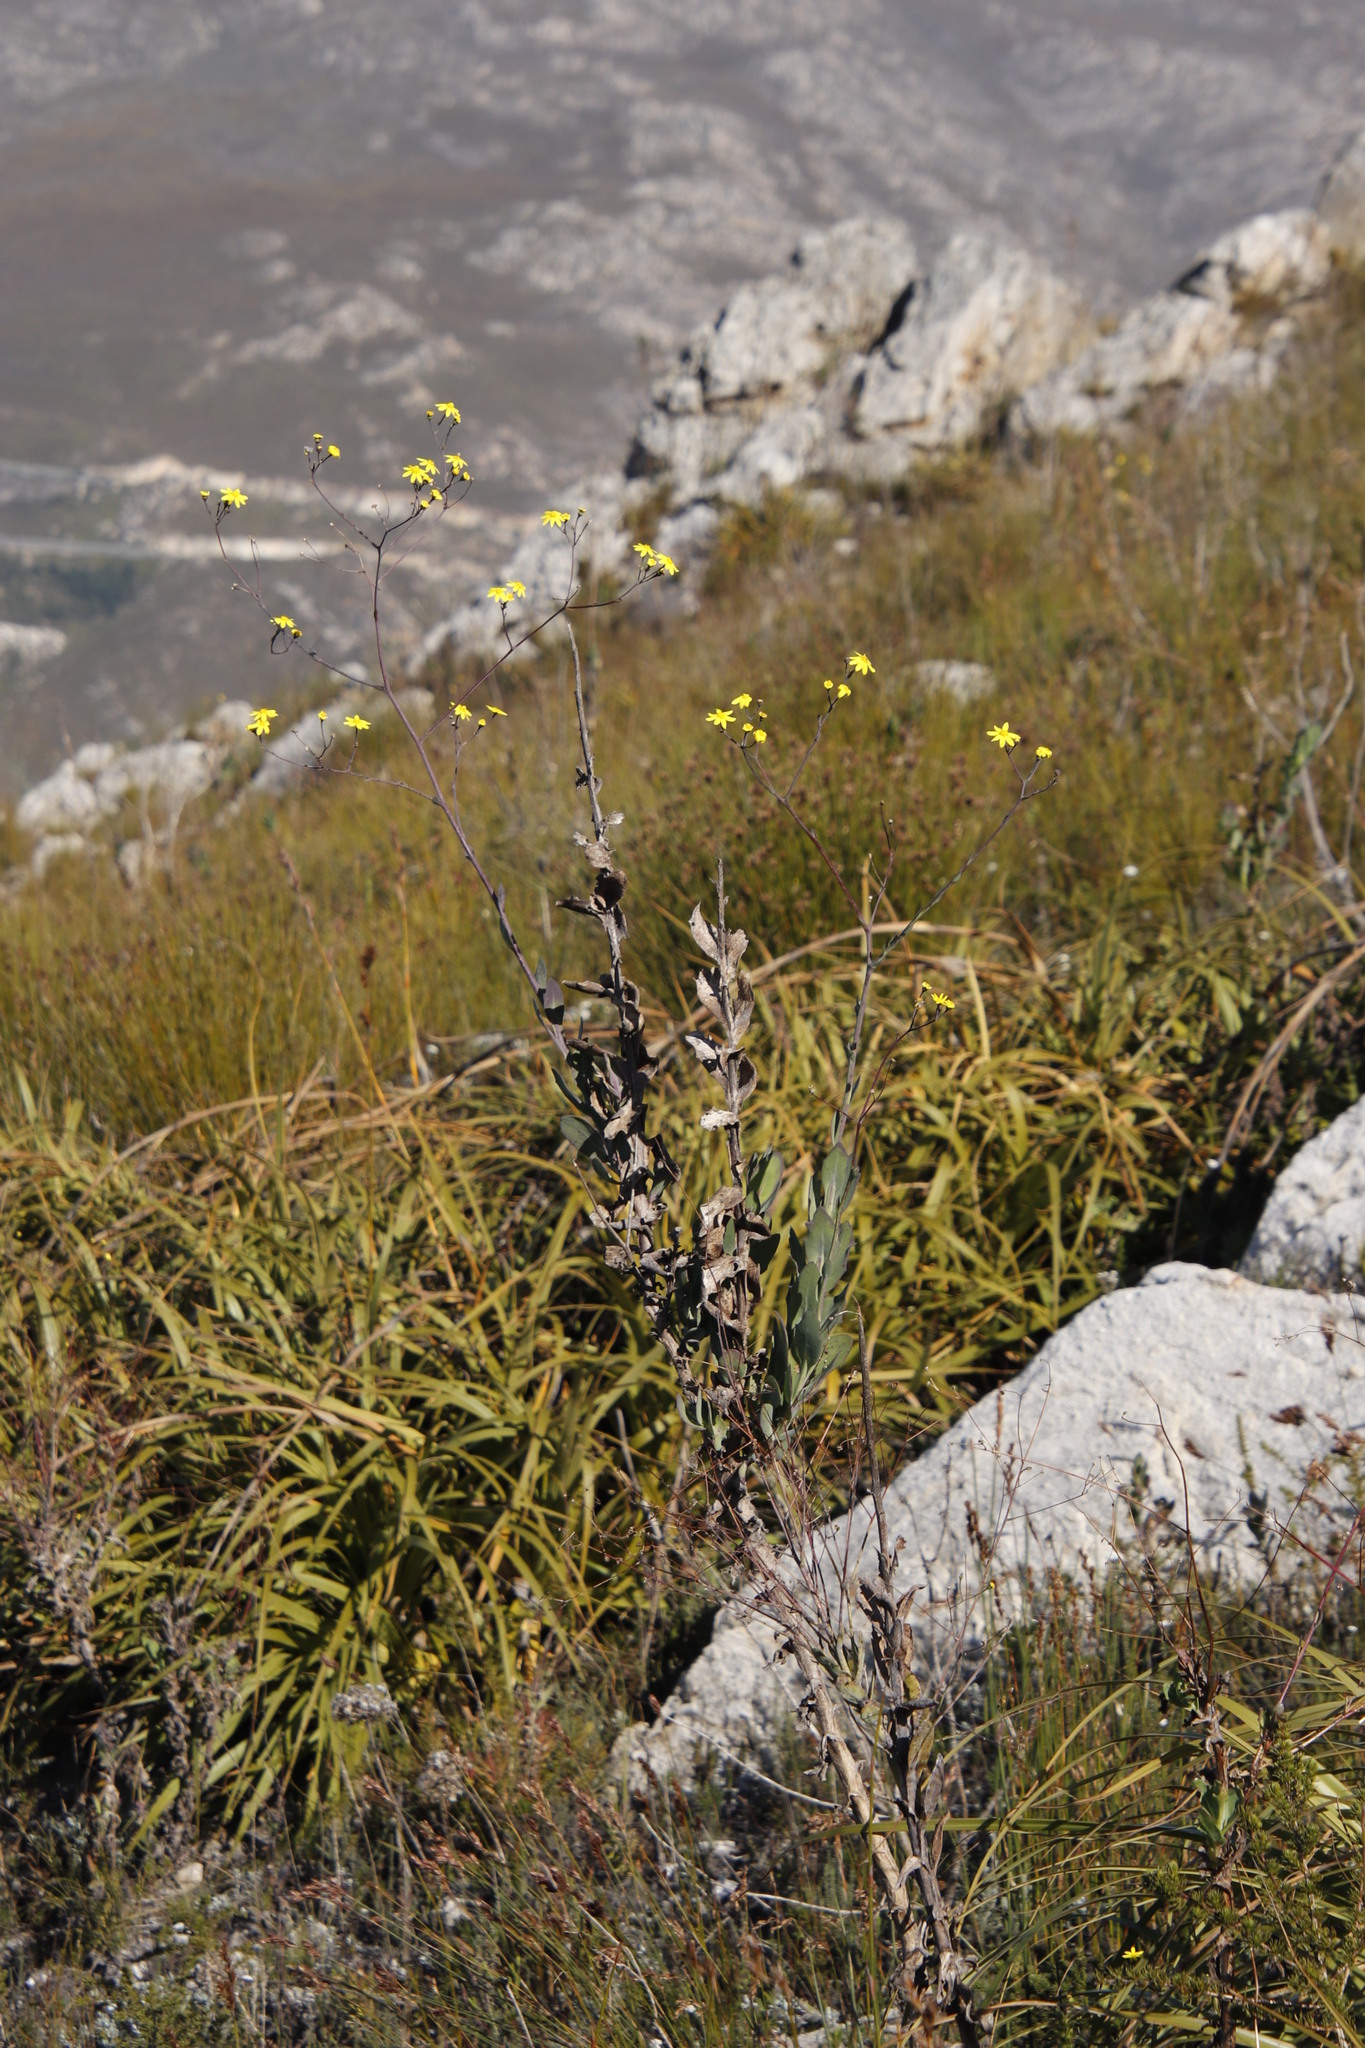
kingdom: Plantae
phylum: Tracheophyta
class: Magnoliopsida
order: Asterales
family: Asteraceae
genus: Othonna
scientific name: Othonna quinquedentata
